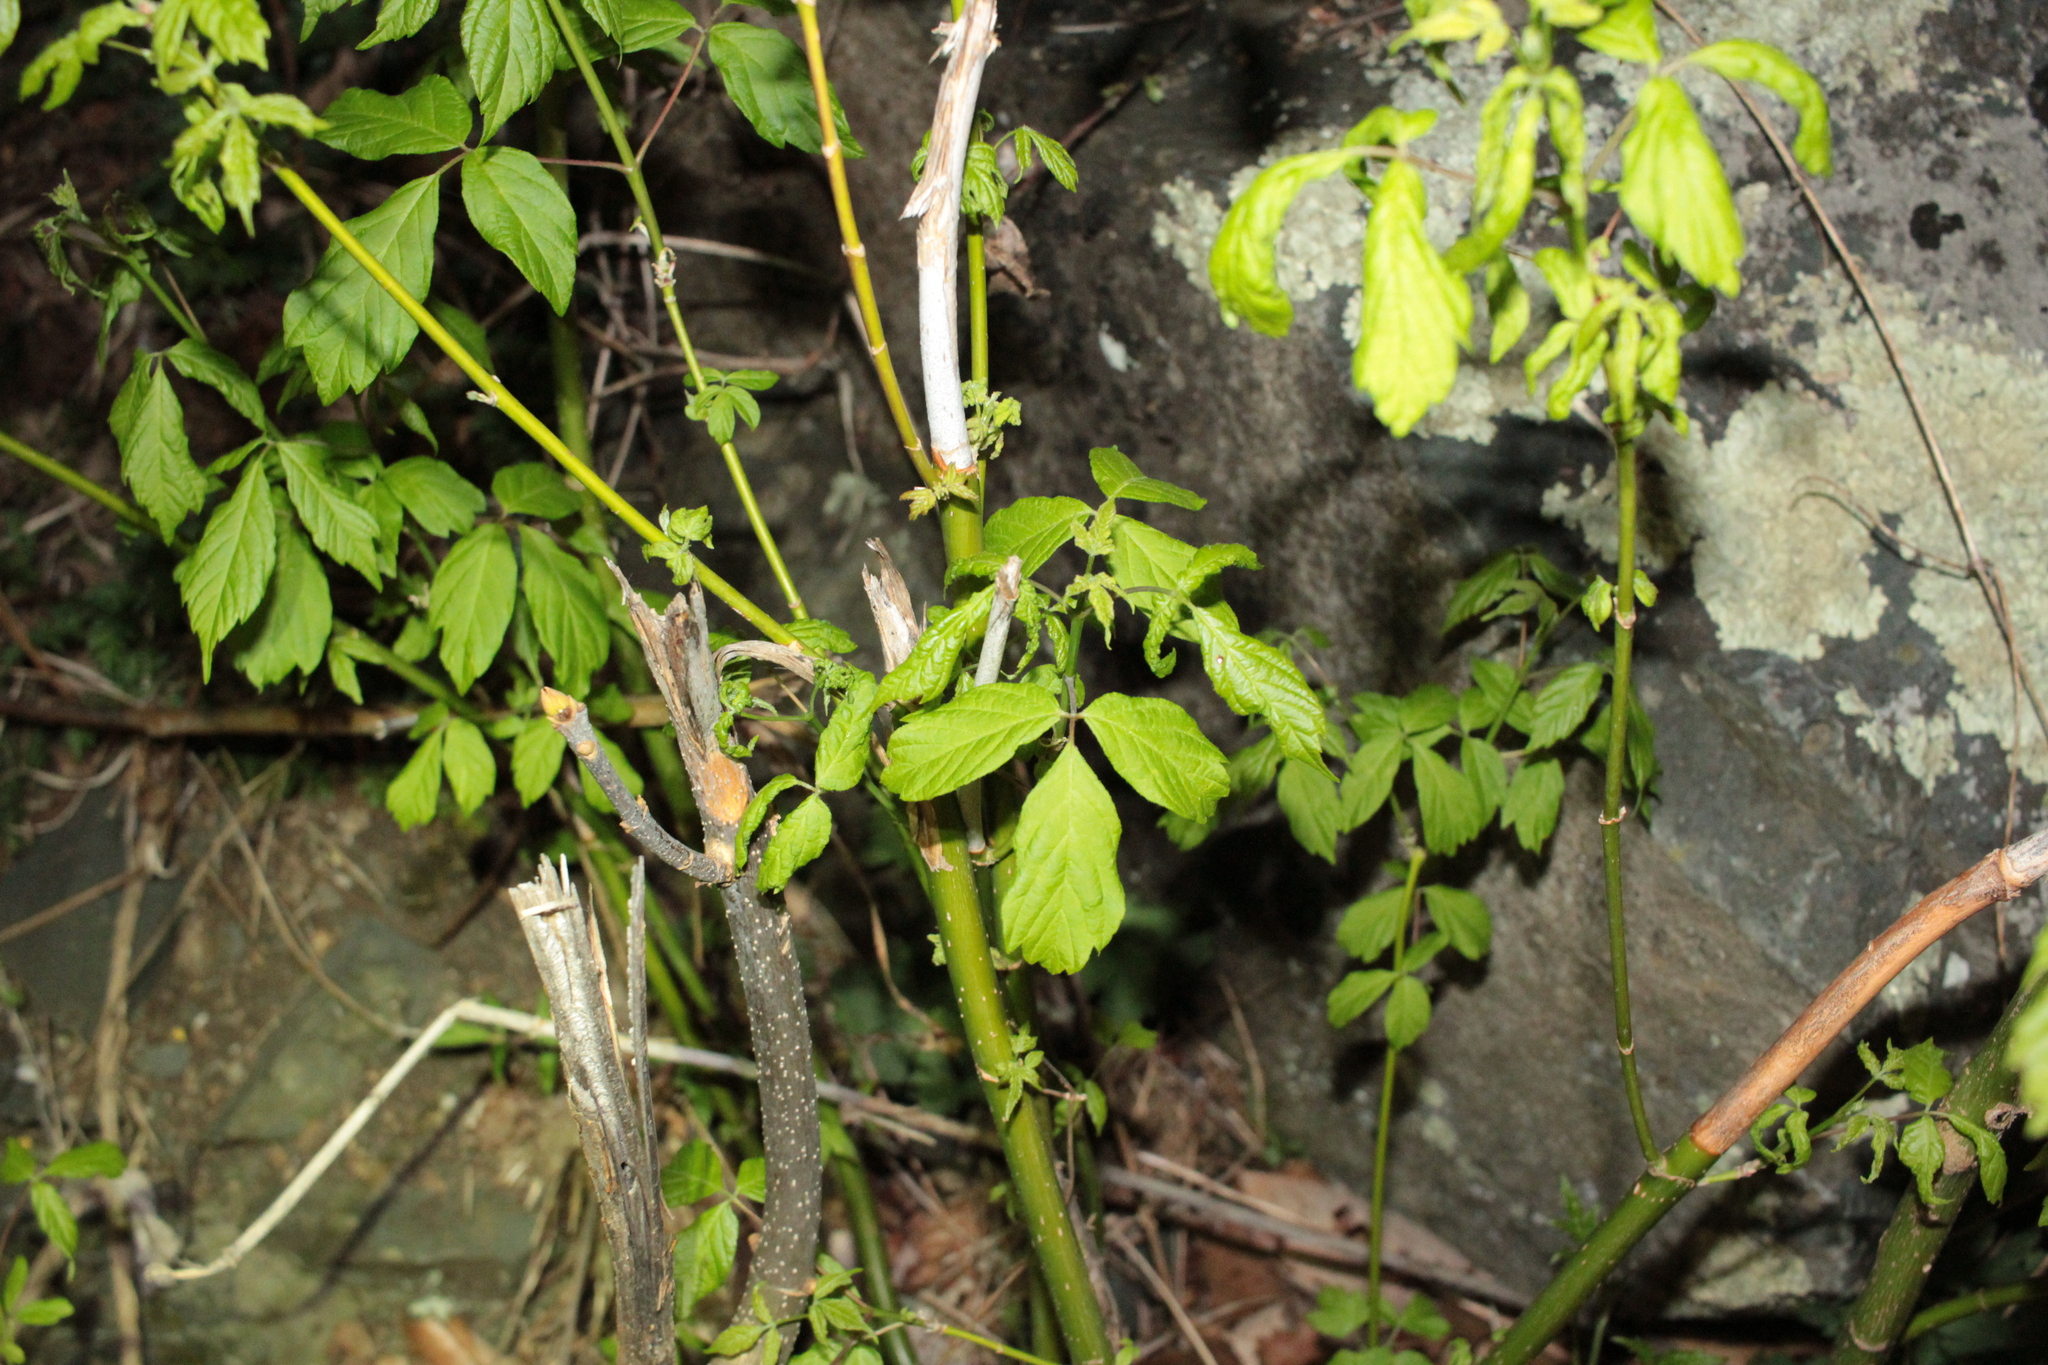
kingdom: Plantae
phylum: Tracheophyta
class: Magnoliopsida
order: Sapindales
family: Sapindaceae
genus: Acer
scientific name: Acer negundo
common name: Ashleaf maple
